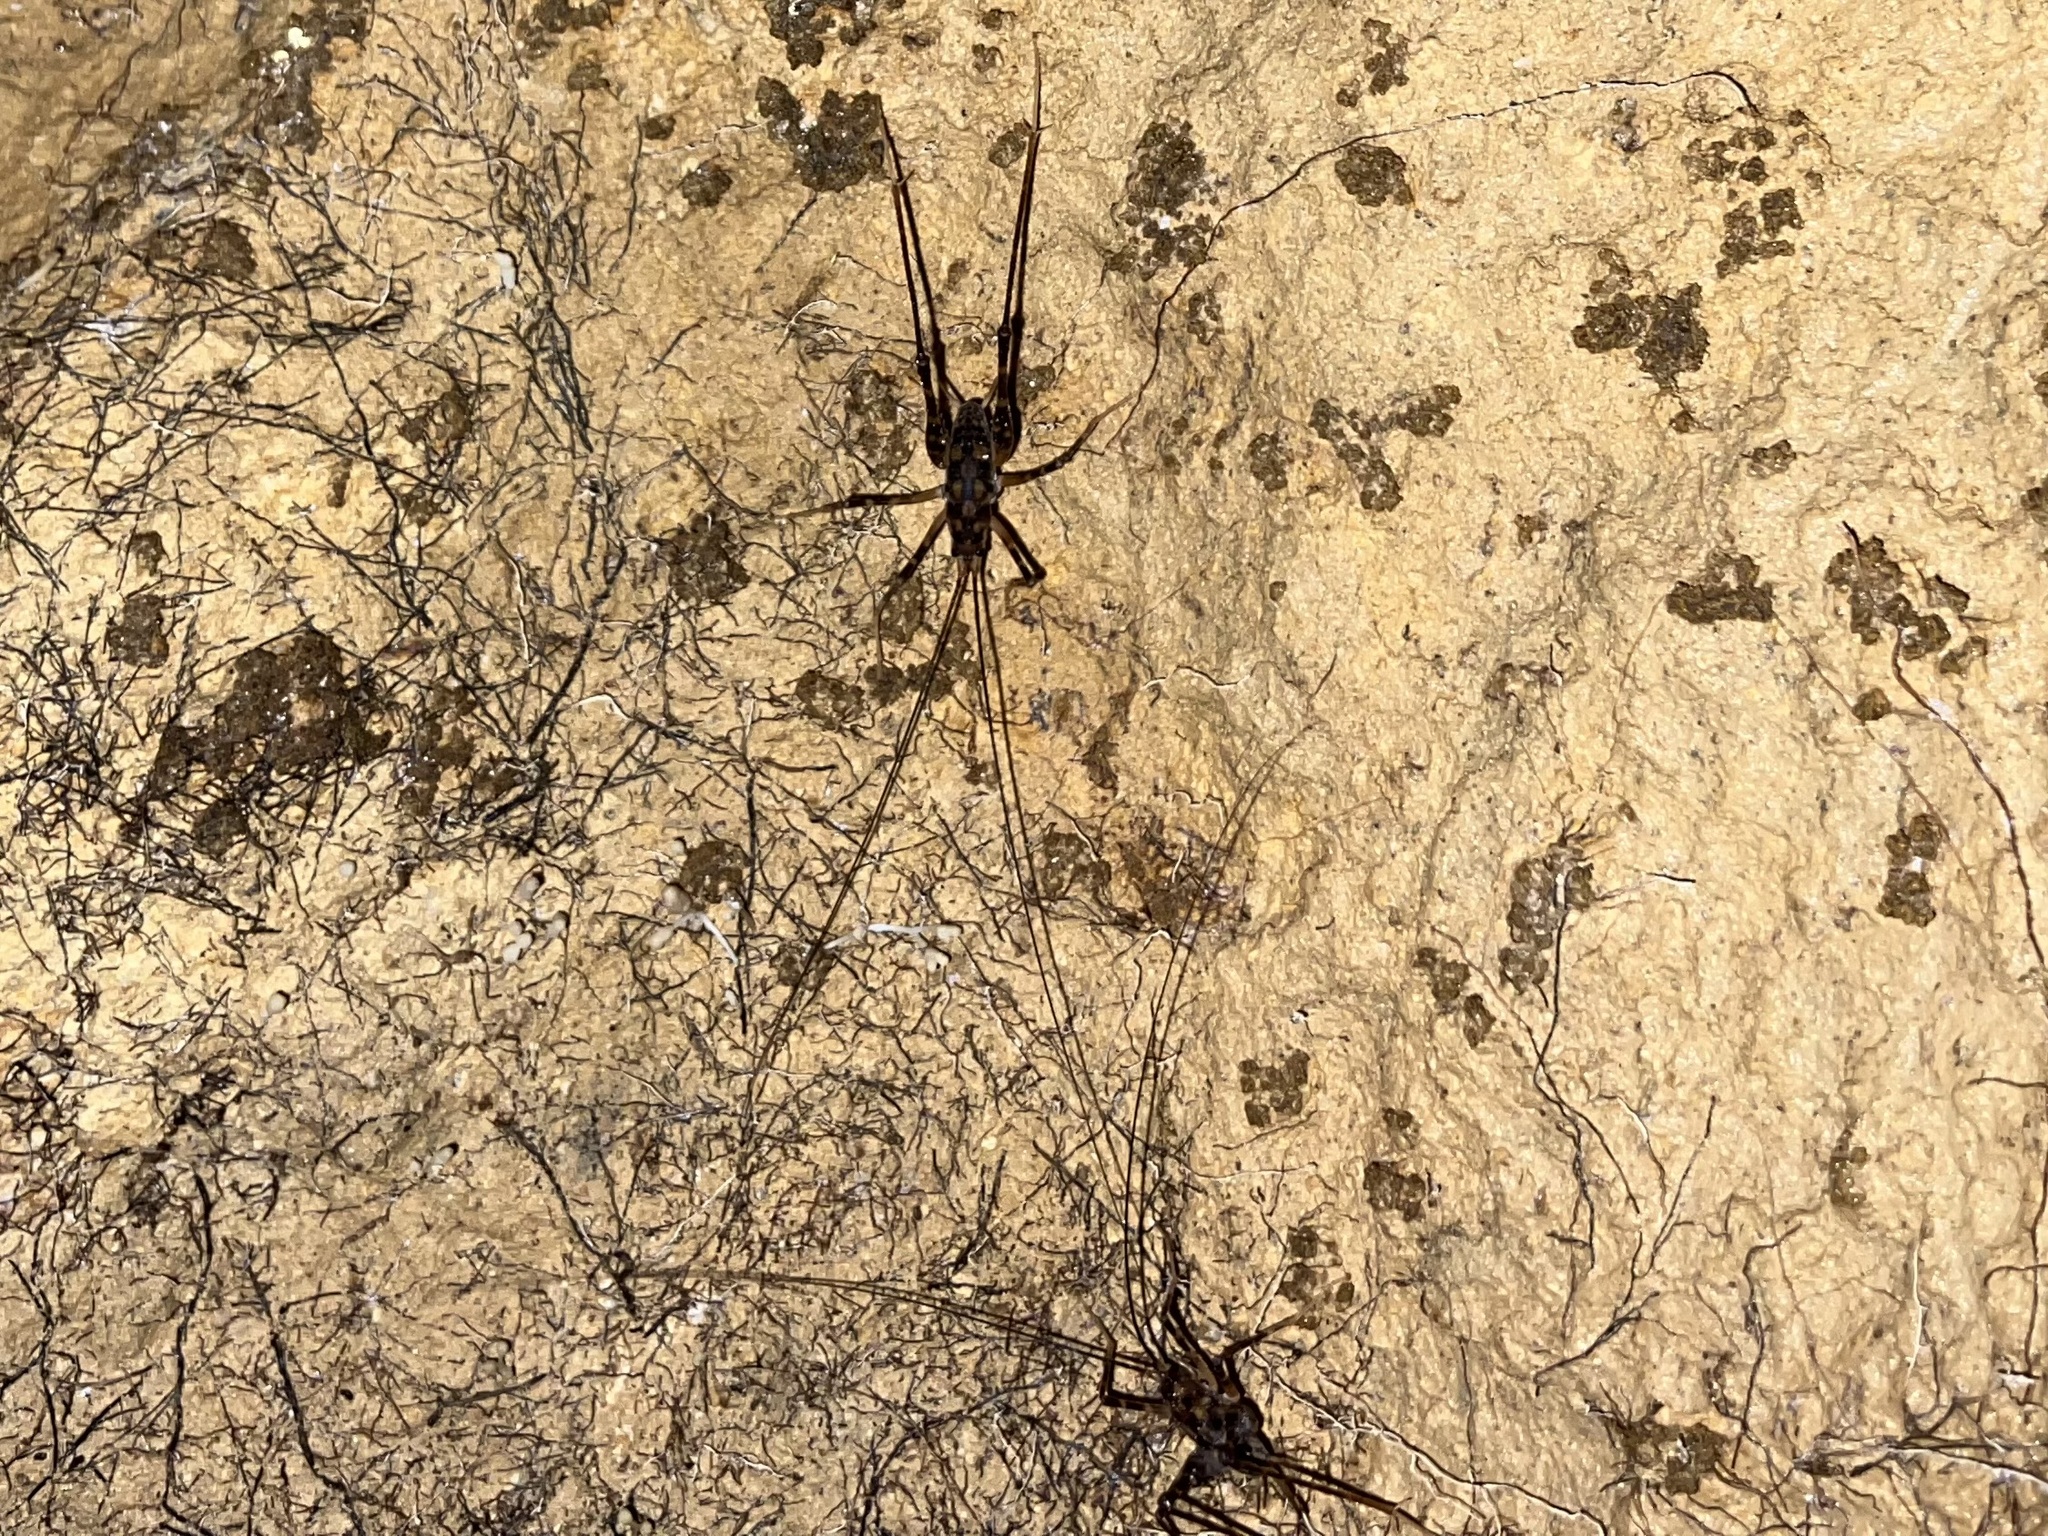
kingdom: Animalia
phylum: Arthropoda
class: Insecta
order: Orthoptera
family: Rhaphidophoridae
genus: Pachyrhamma
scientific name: Pachyrhamma uncata
